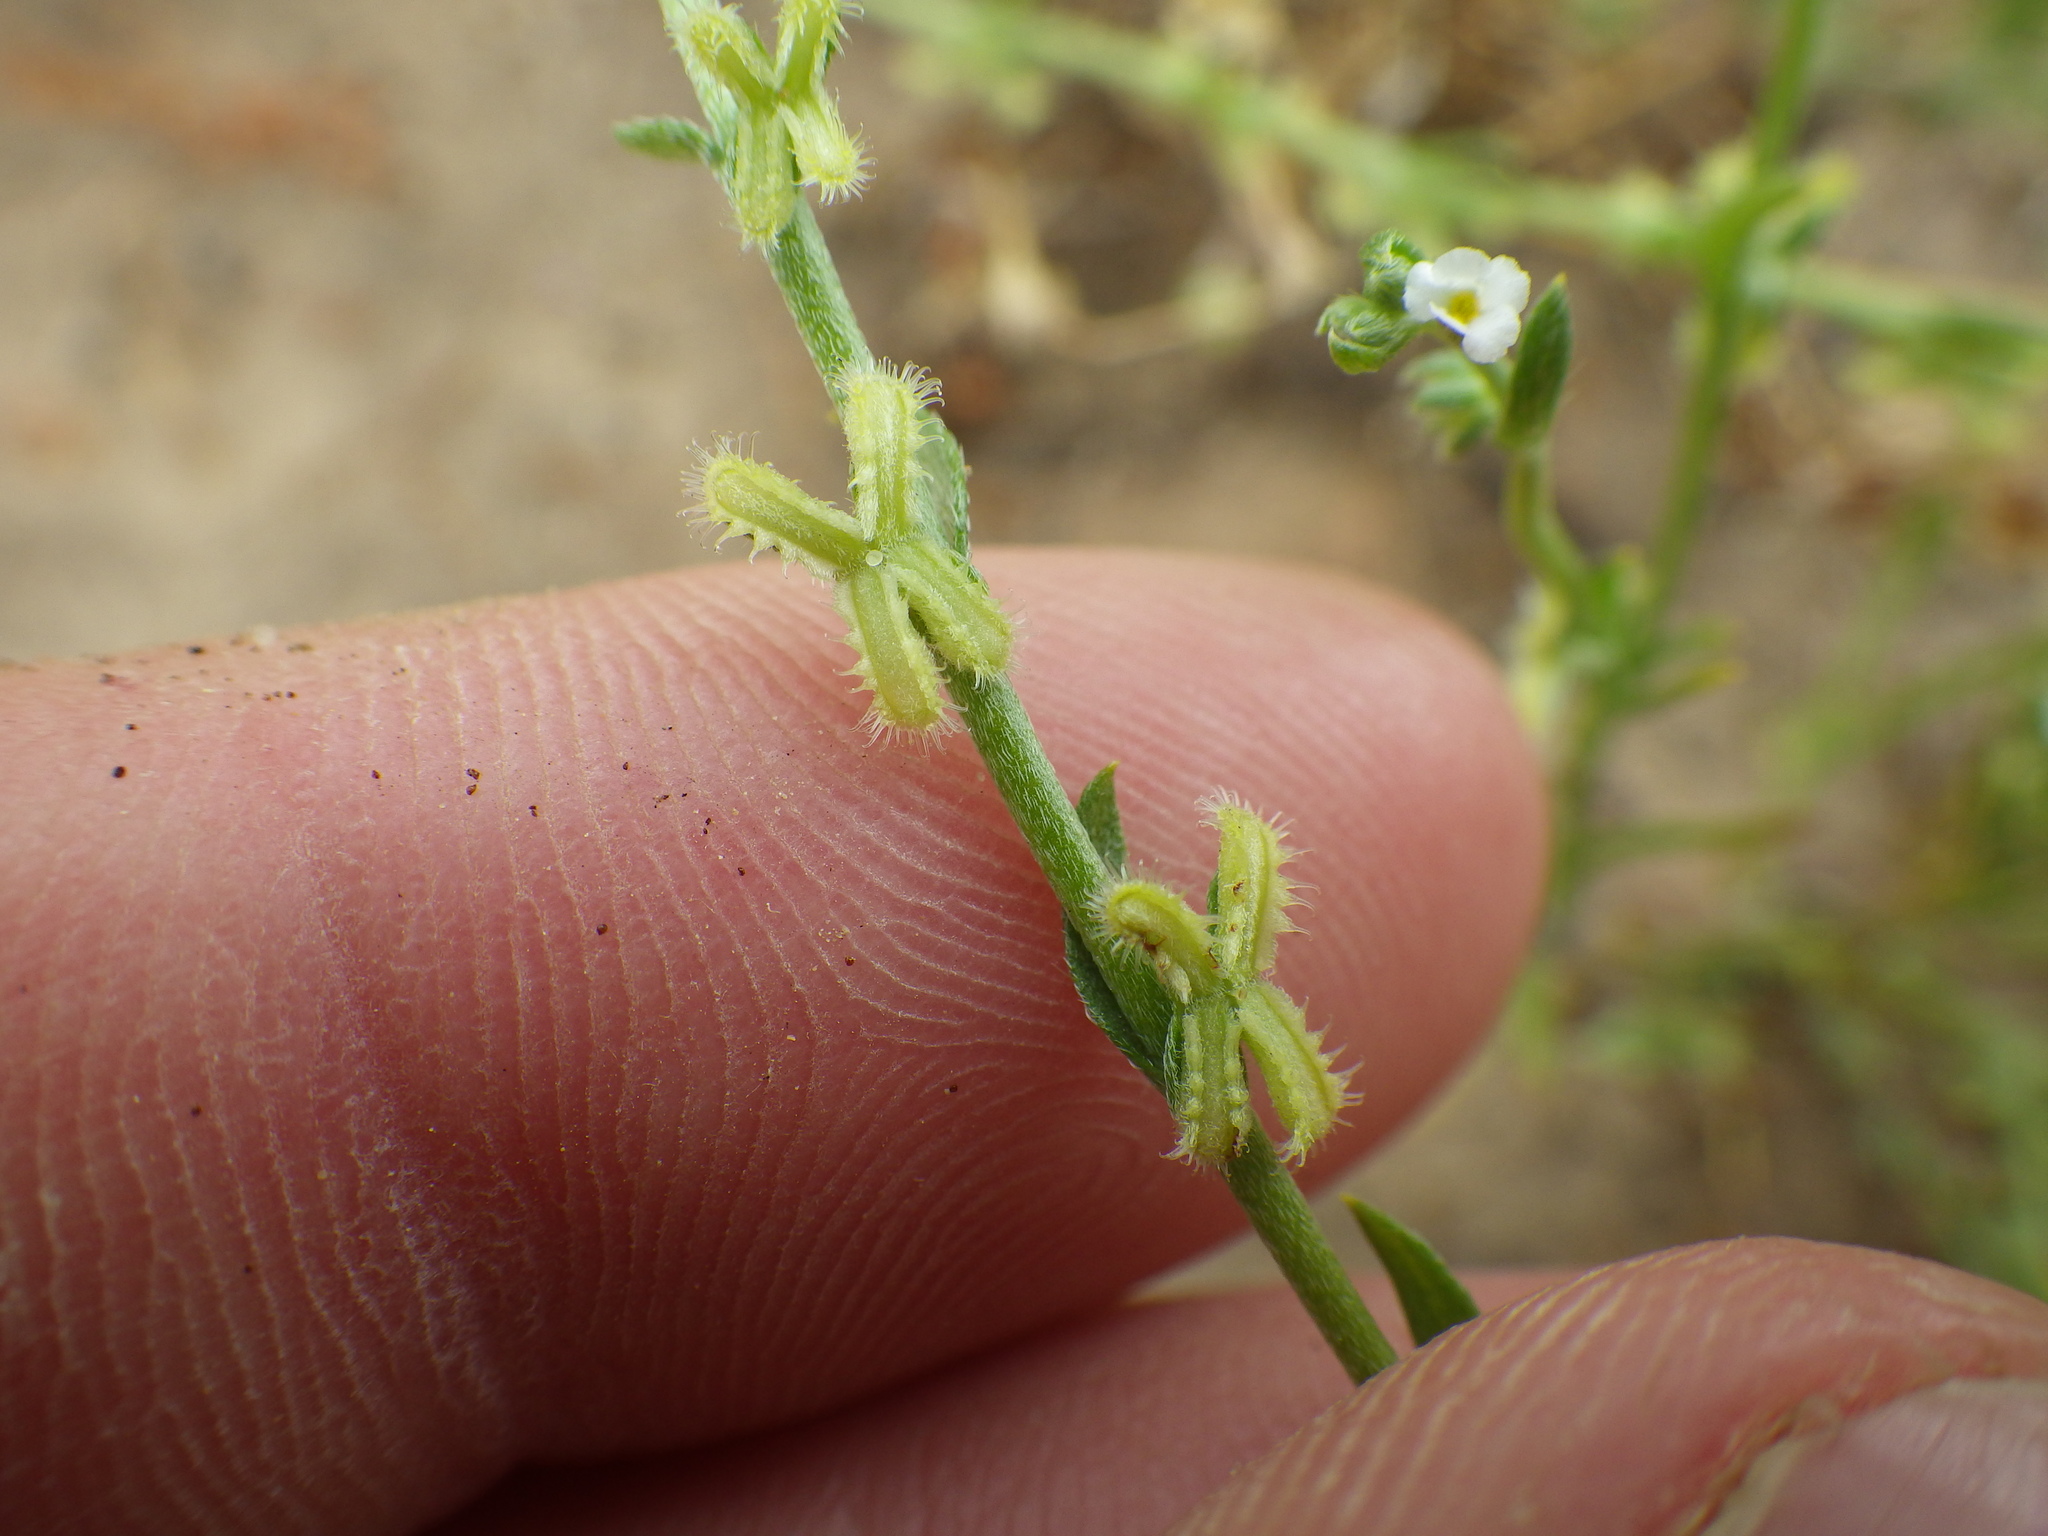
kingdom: Plantae
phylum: Tracheophyta
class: Magnoliopsida
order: Boraginales
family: Boraginaceae
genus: Pectocarya
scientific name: Pectocarya linearis
